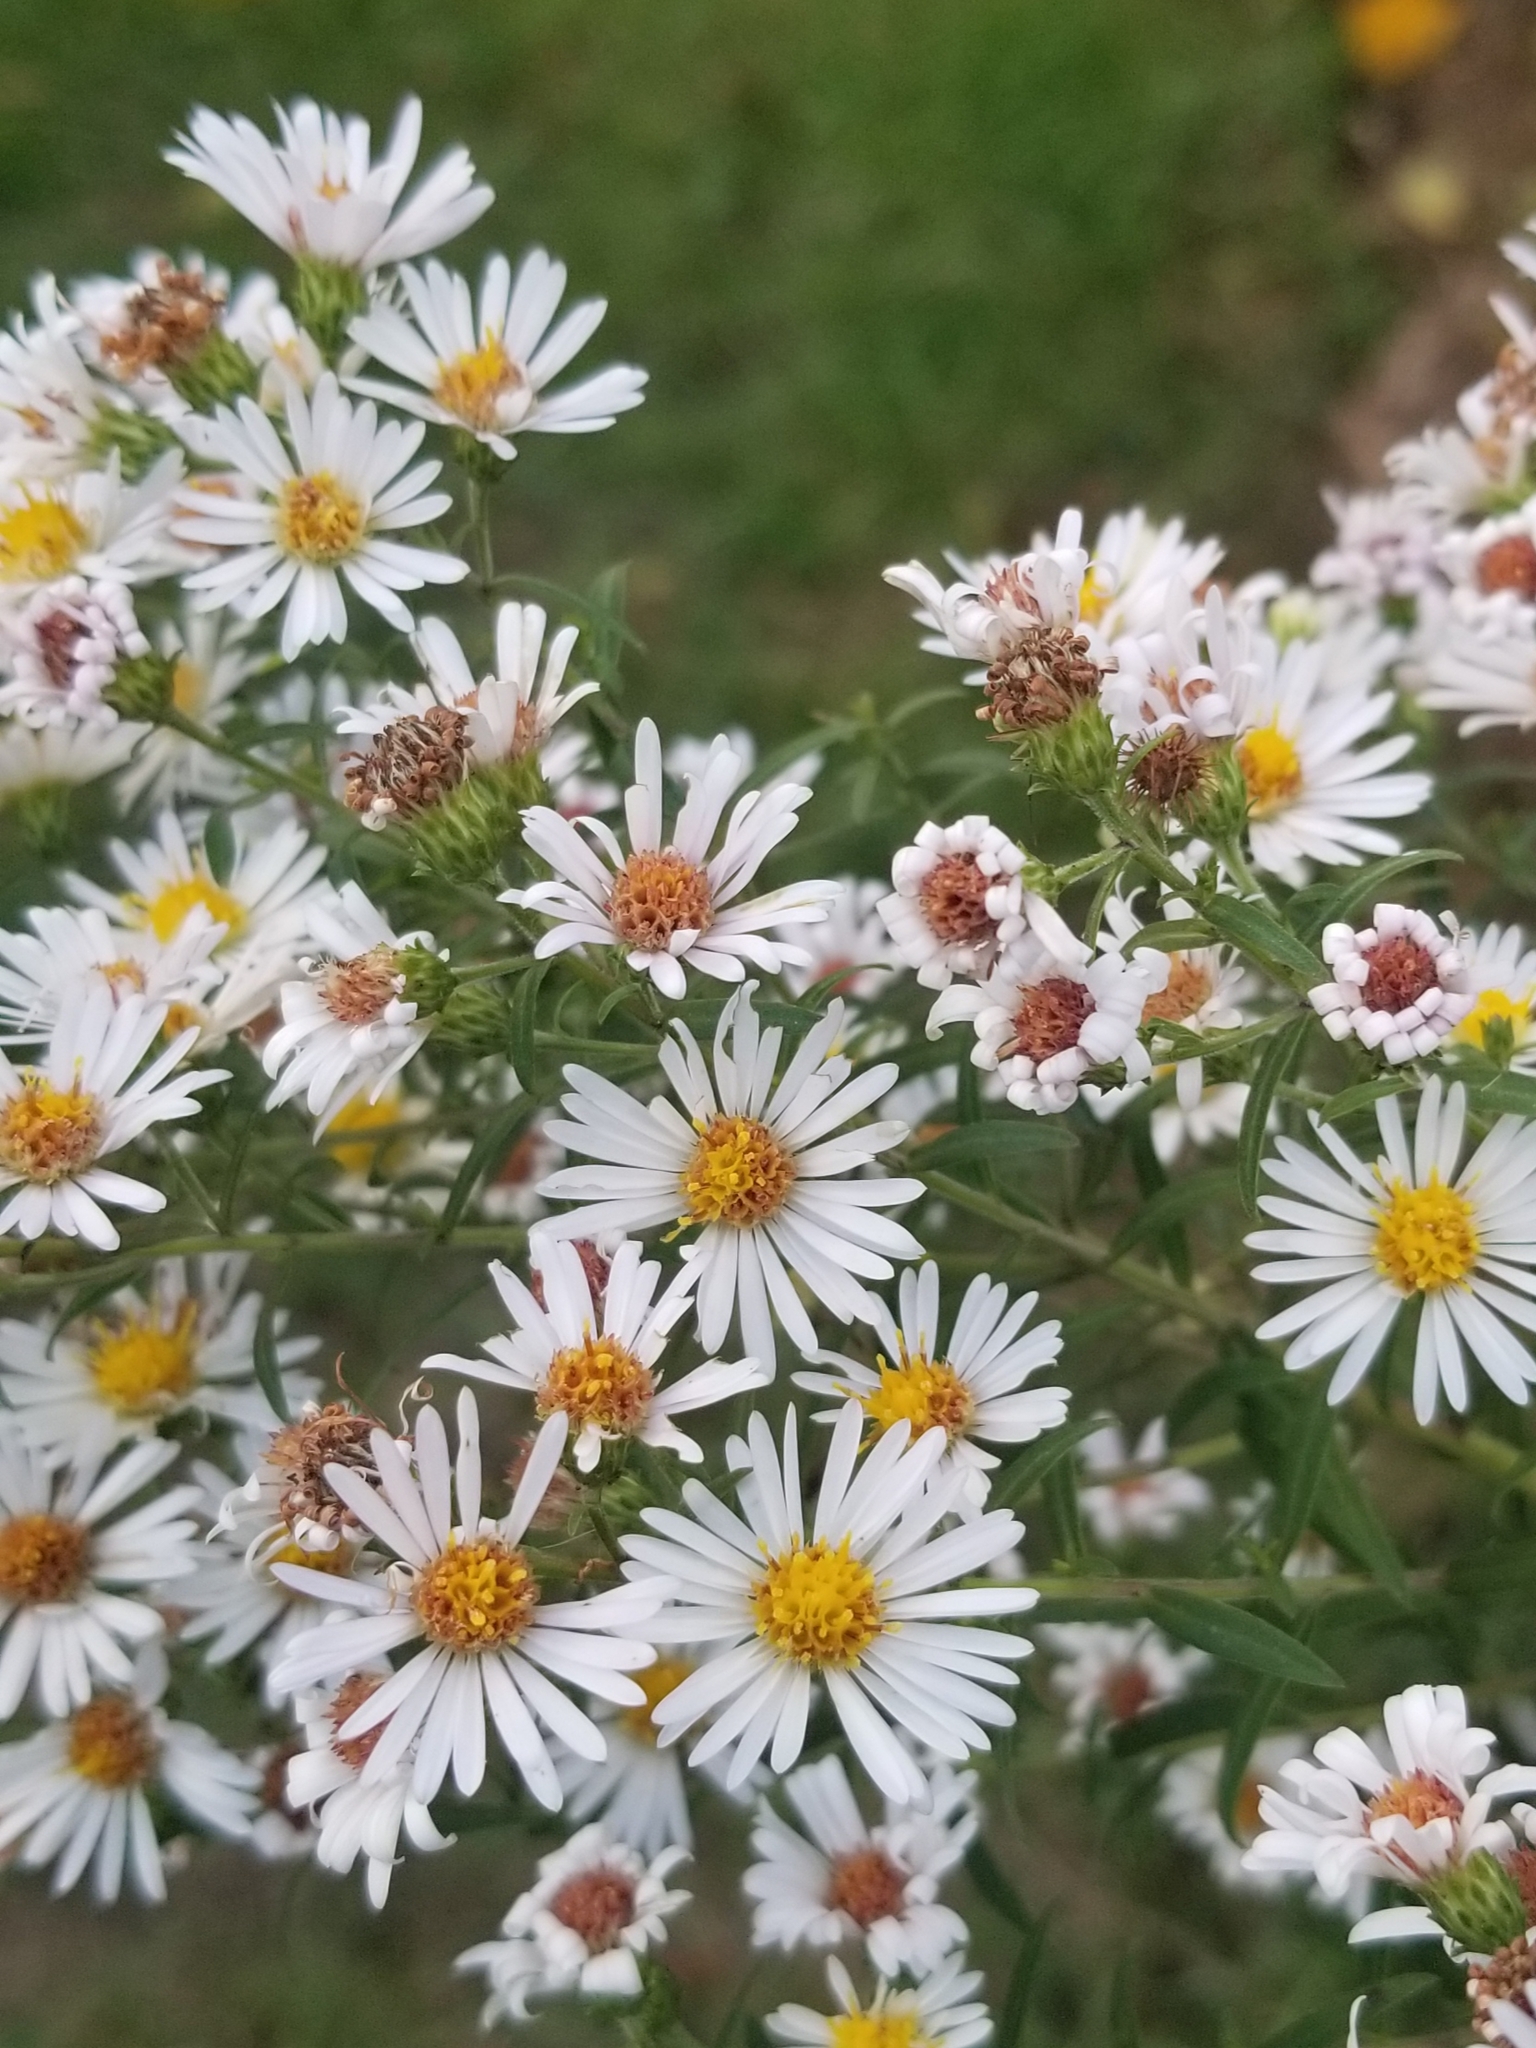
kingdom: Plantae
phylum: Tracheophyta
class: Magnoliopsida
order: Asterales
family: Asteraceae
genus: Symphyotrichum
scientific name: Symphyotrichum lanceolatum
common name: Panicled aster
